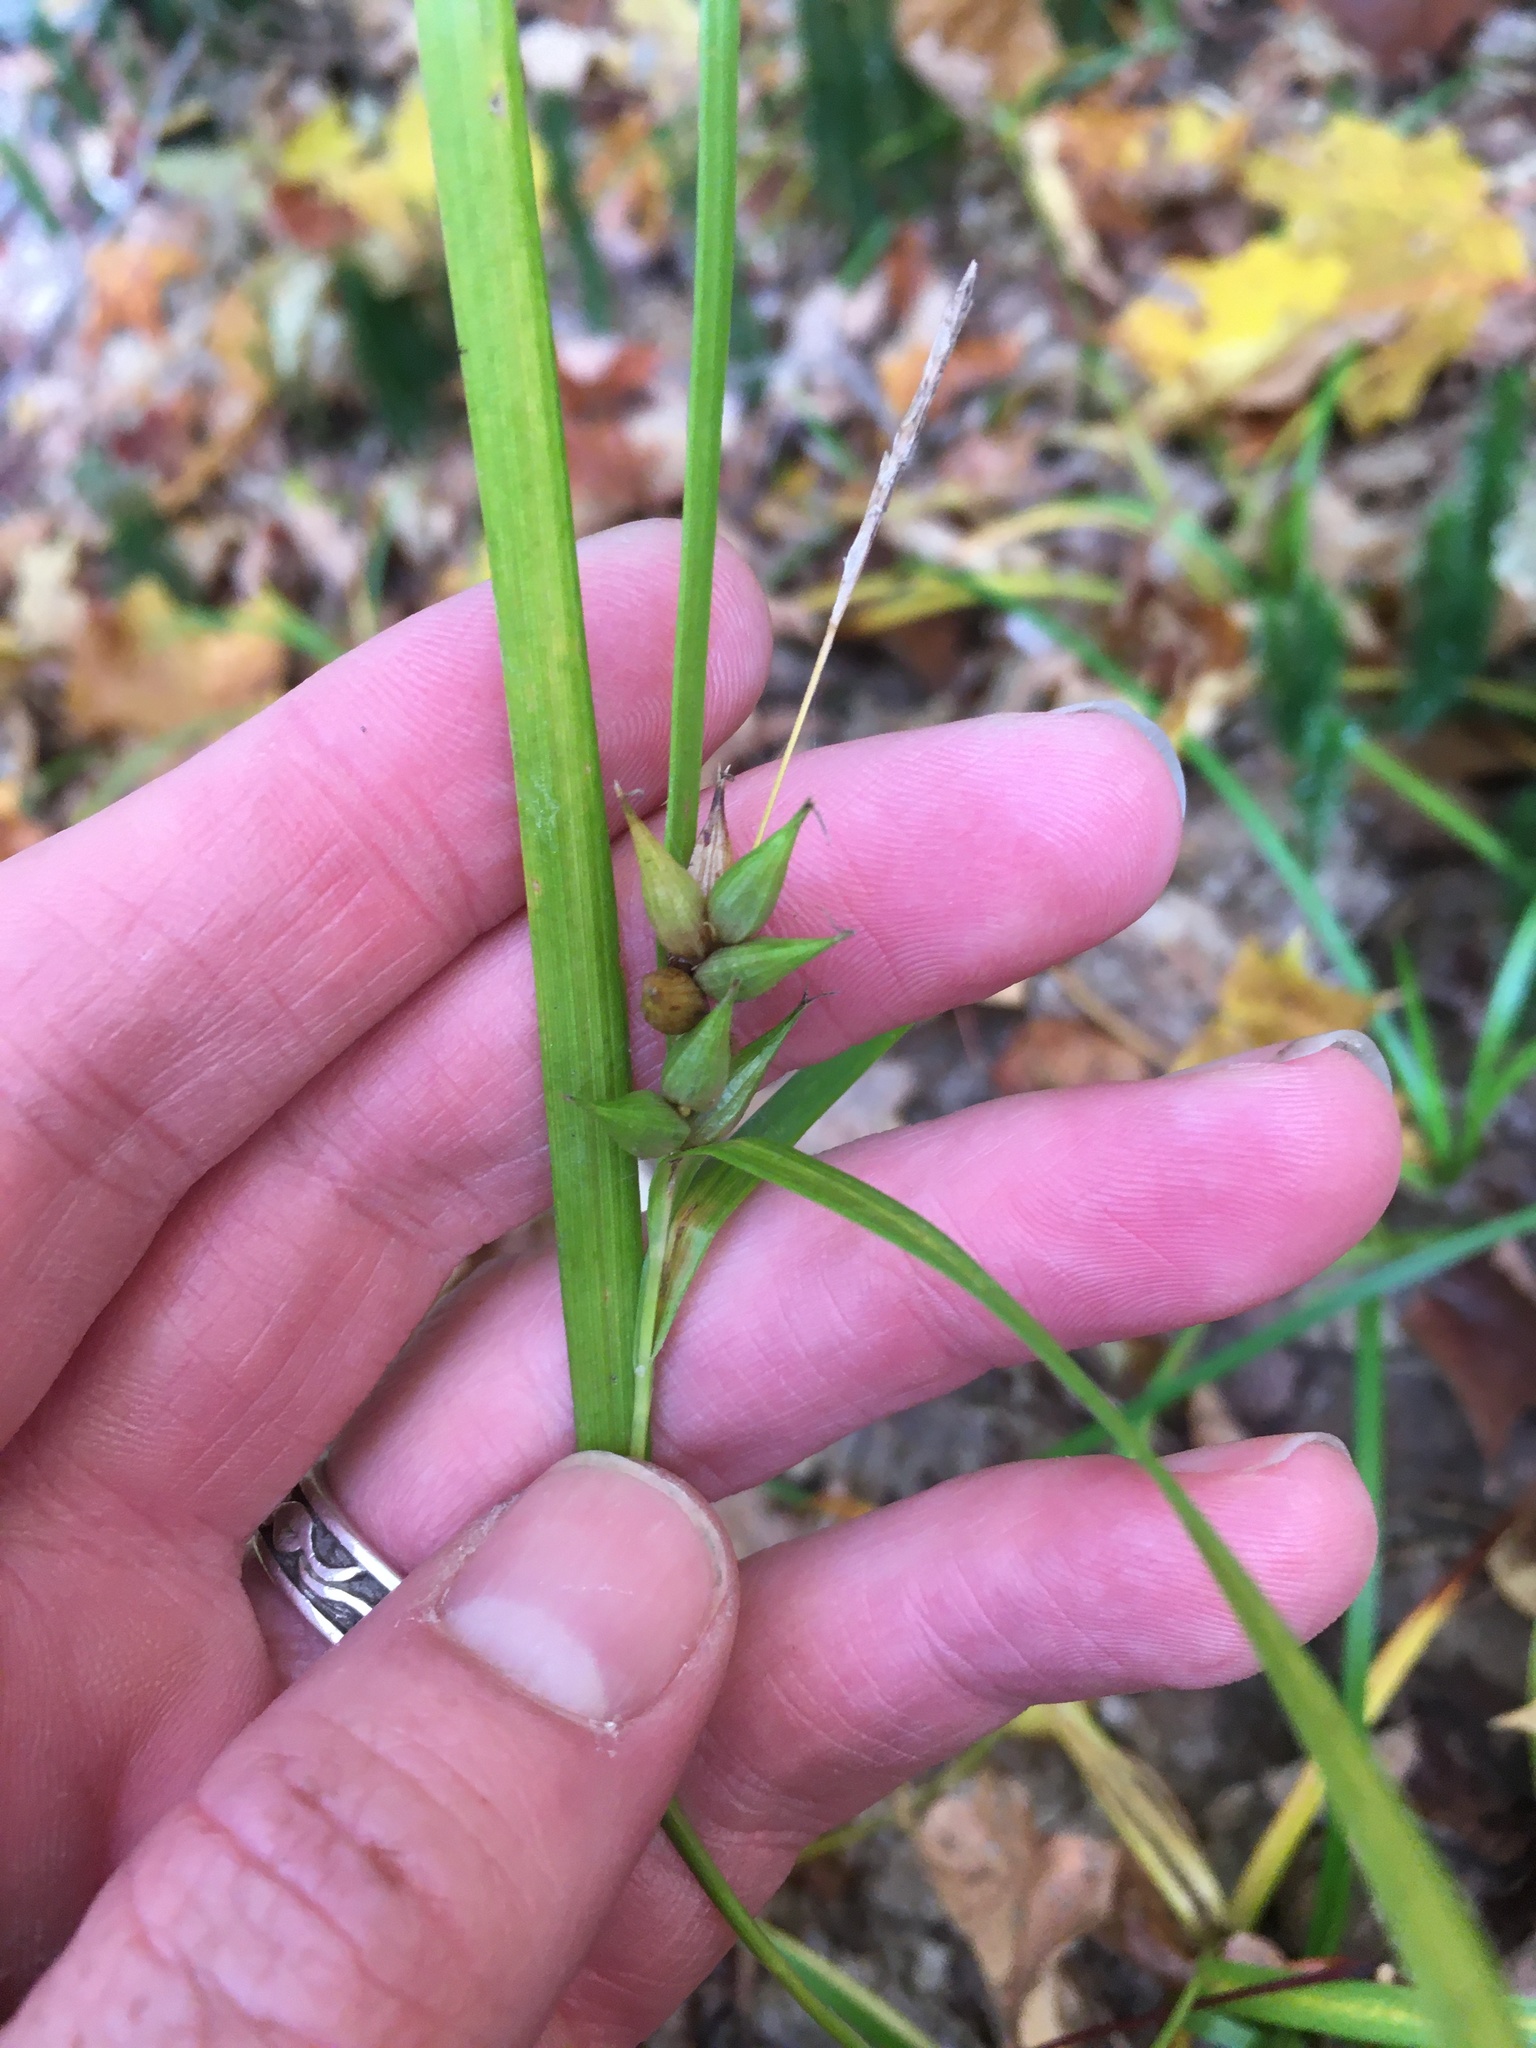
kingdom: Plantae
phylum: Tracheophyta
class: Liliopsida
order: Poales
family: Cyperaceae
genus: Carex
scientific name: Carex intumescens
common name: Greater bladder sedge
